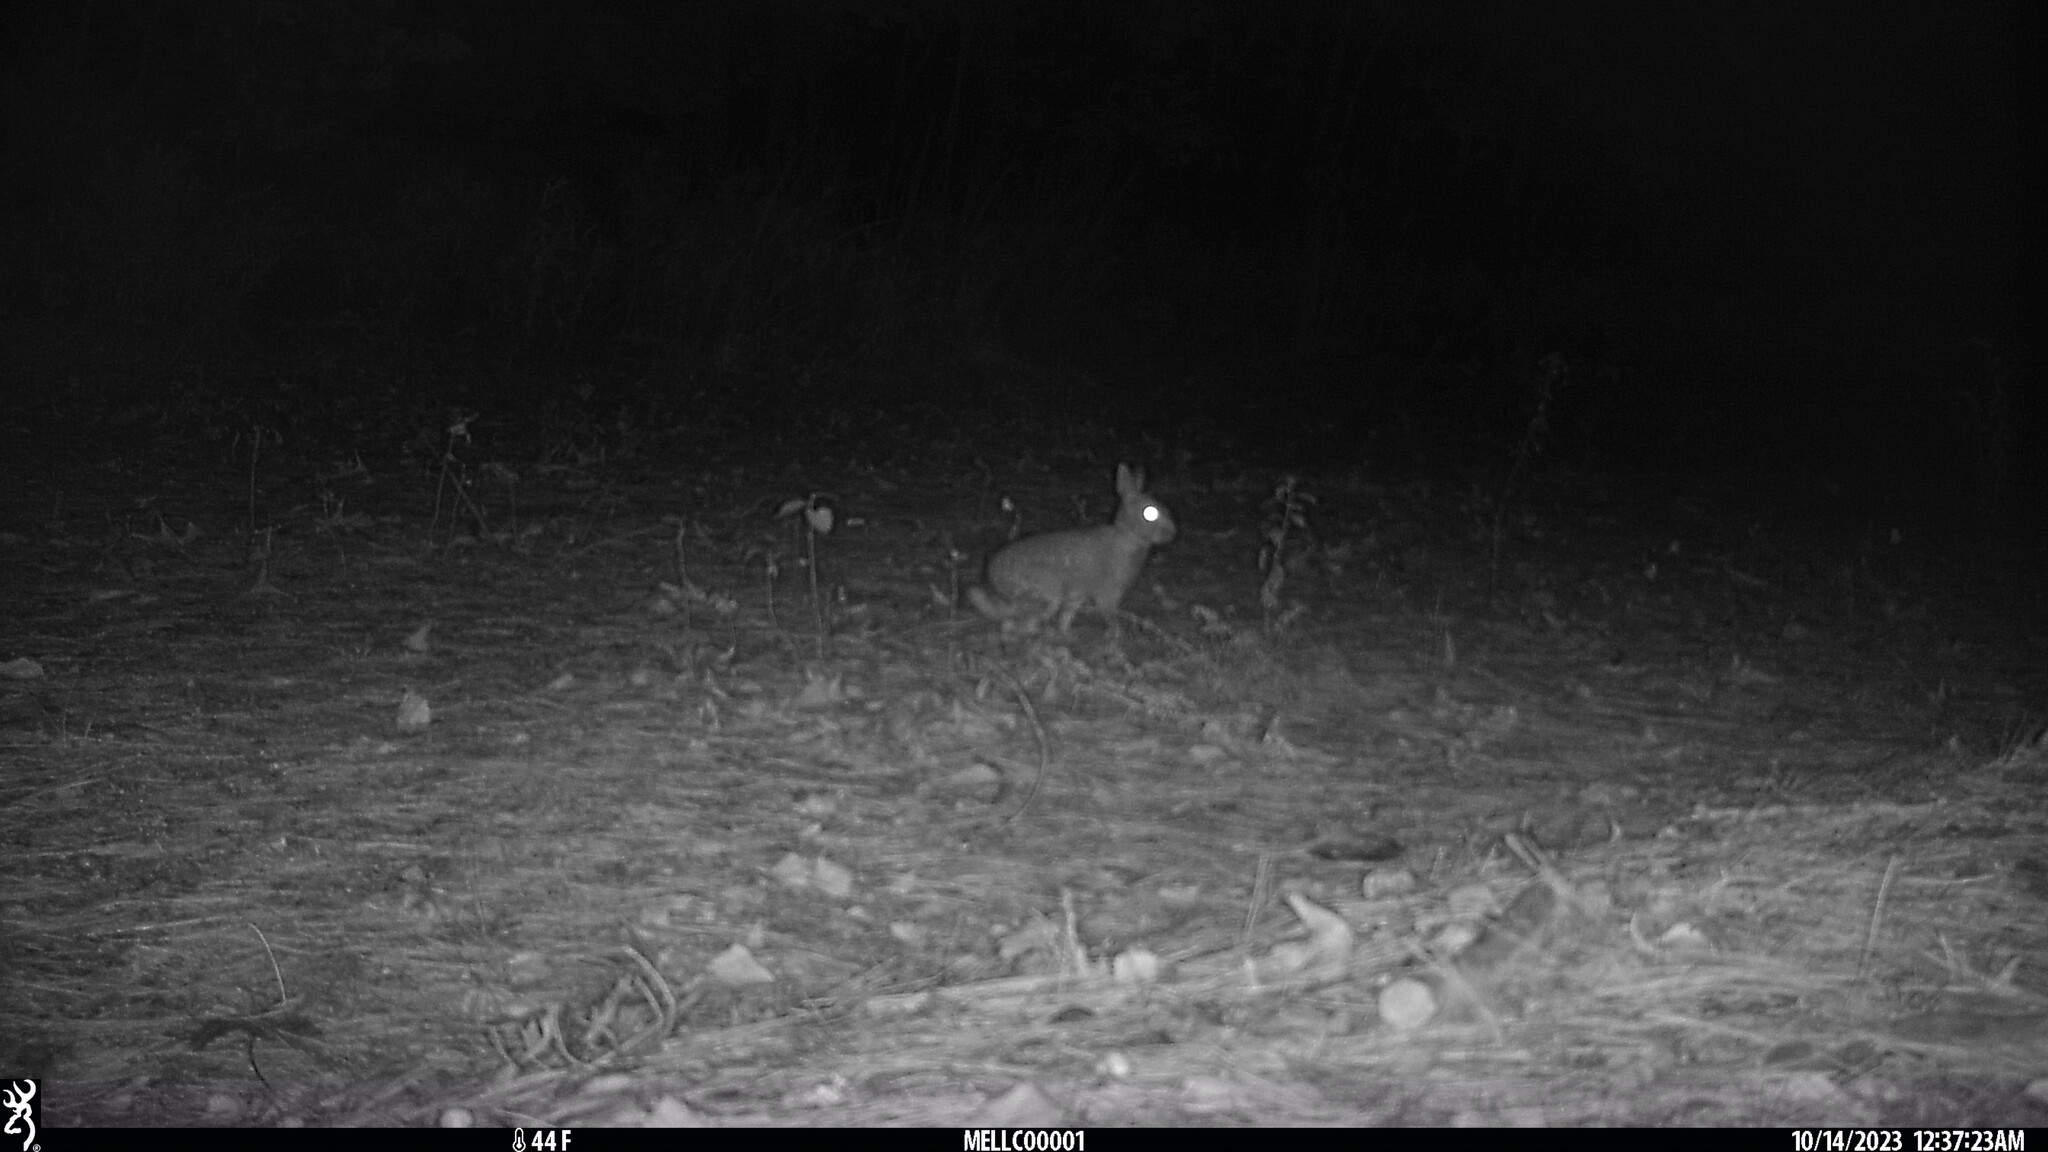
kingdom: Animalia
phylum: Chordata
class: Mammalia
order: Lagomorpha
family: Leporidae
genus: Sylvilagus
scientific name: Sylvilagus floridanus
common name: Eastern cottontail
